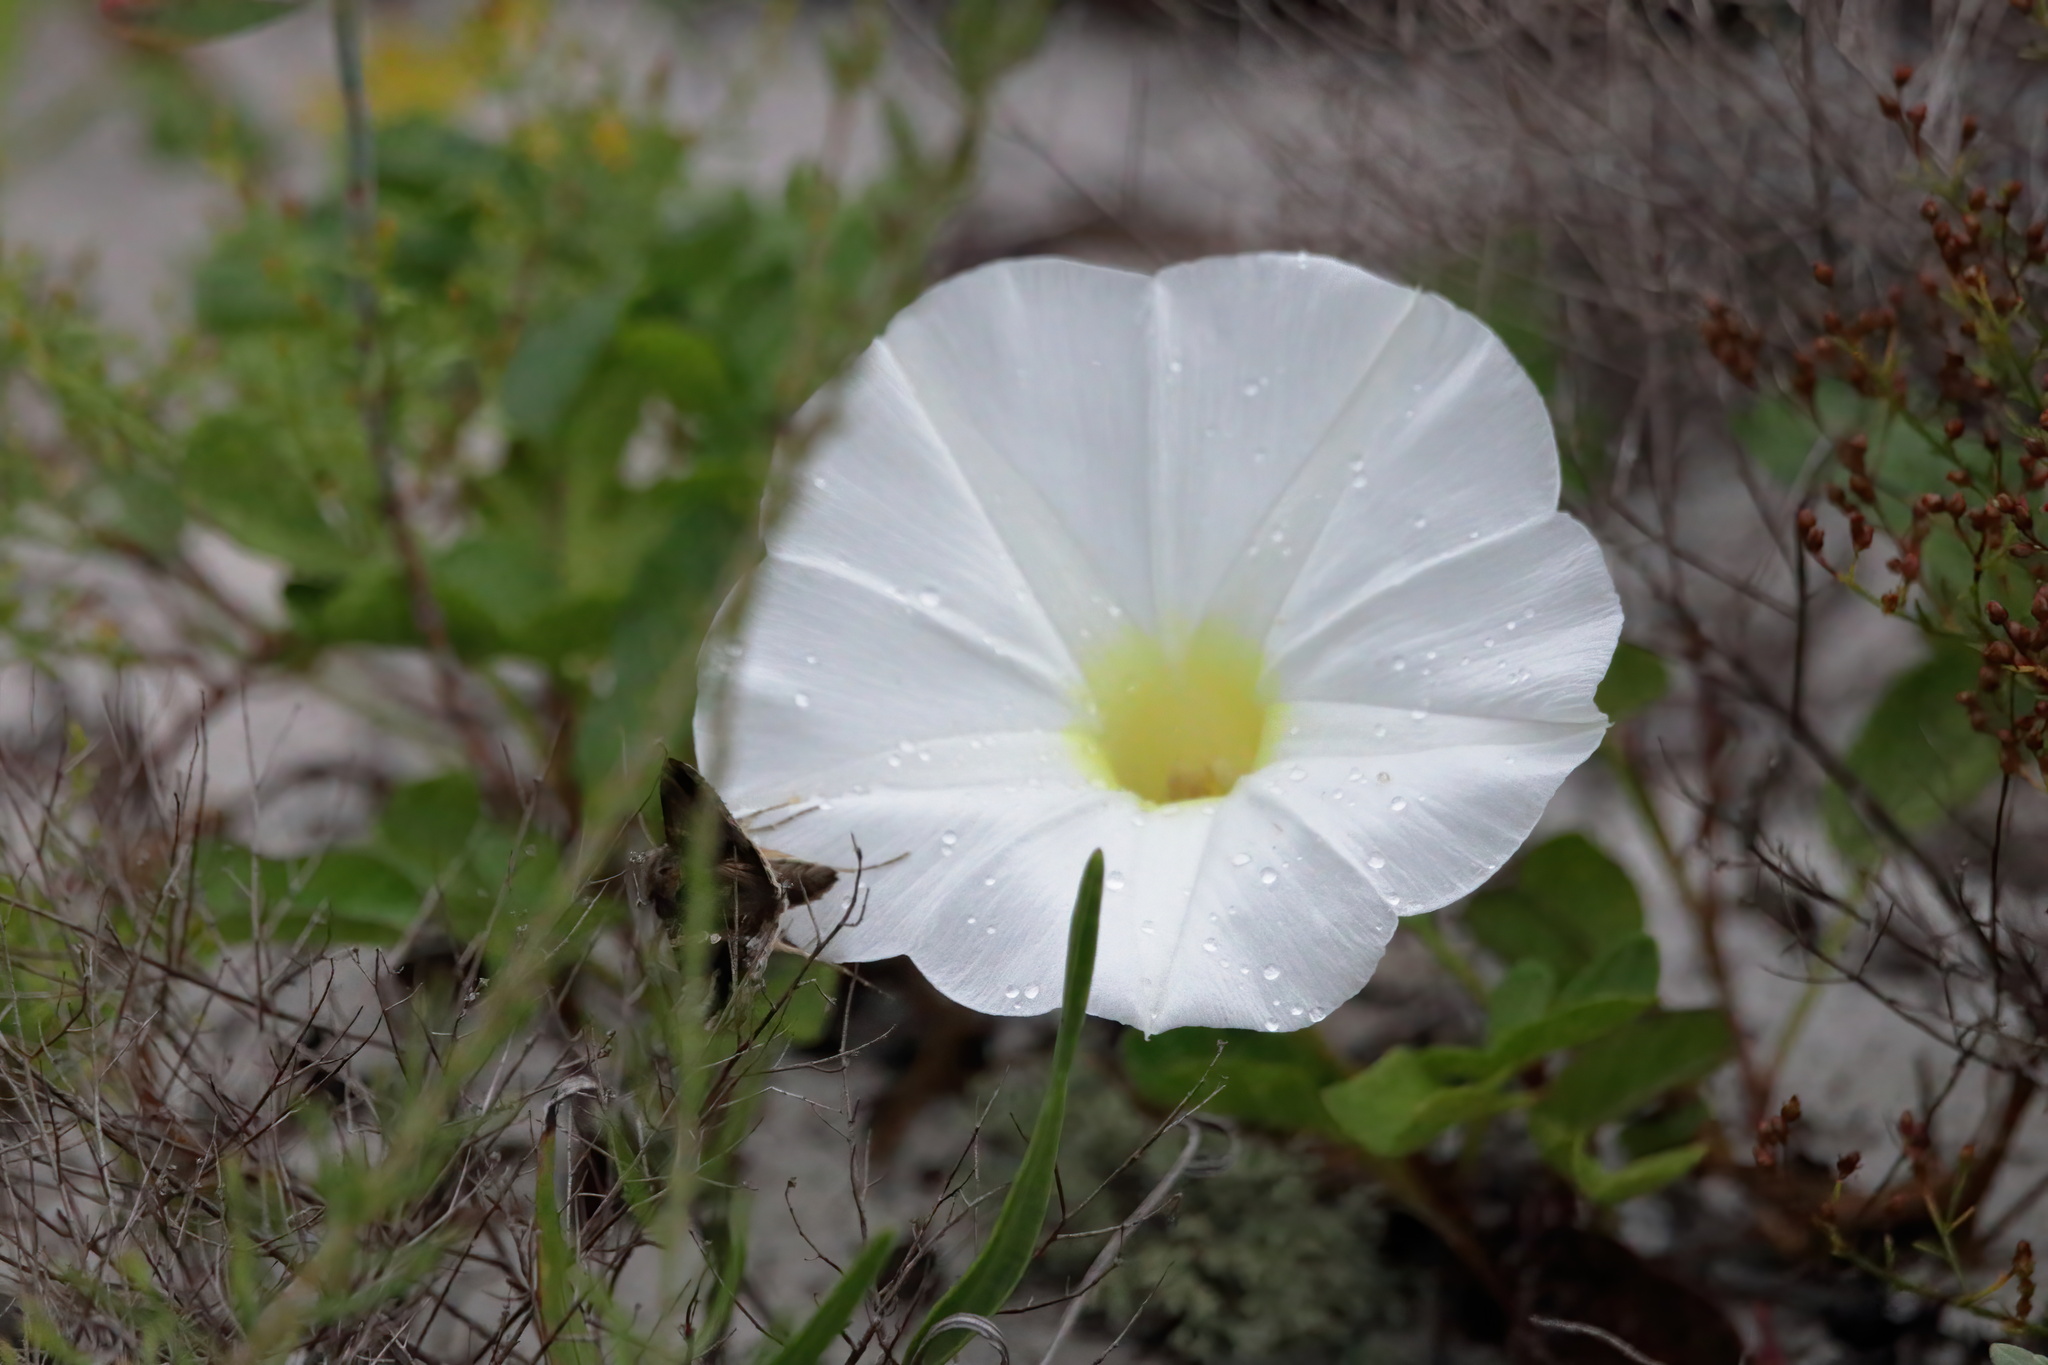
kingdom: Plantae
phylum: Tracheophyta
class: Magnoliopsida
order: Solanales
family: Convolvulaceae
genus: Ipomoea
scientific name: Ipomoea imperati
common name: Fiddle-leaf morning-glory
